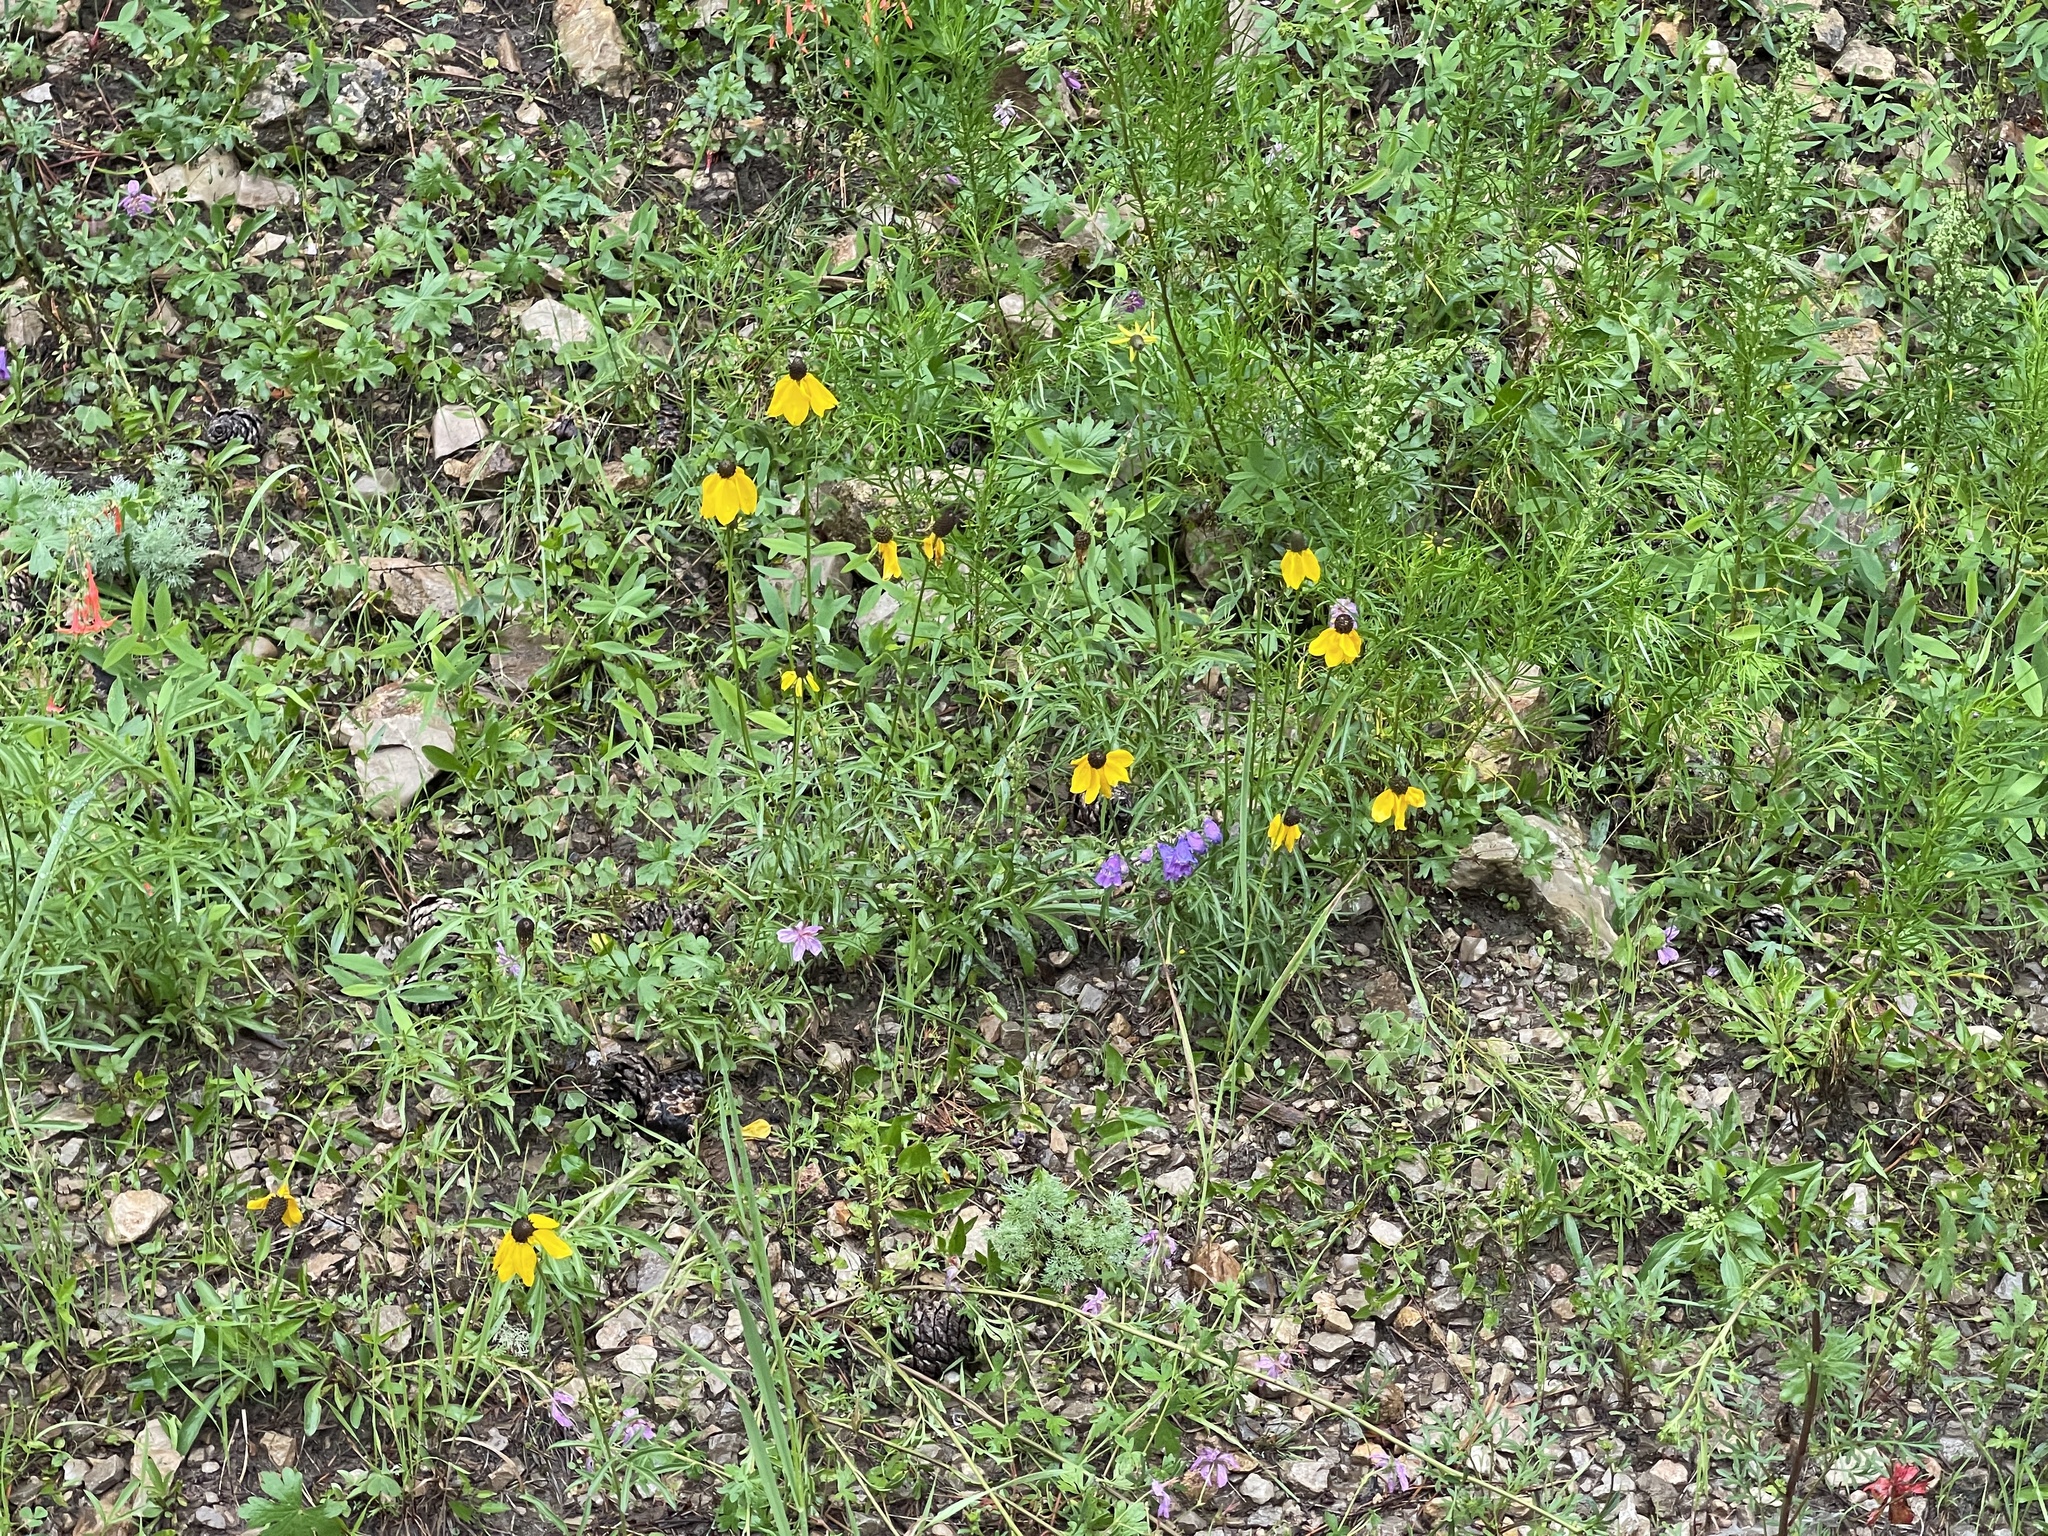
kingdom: Plantae
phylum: Tracheophyta
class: Magnoliopsida
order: Asterales
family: Asteraceae
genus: Ratibida
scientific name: Ratibida columnifera
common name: Prairie coneflower
